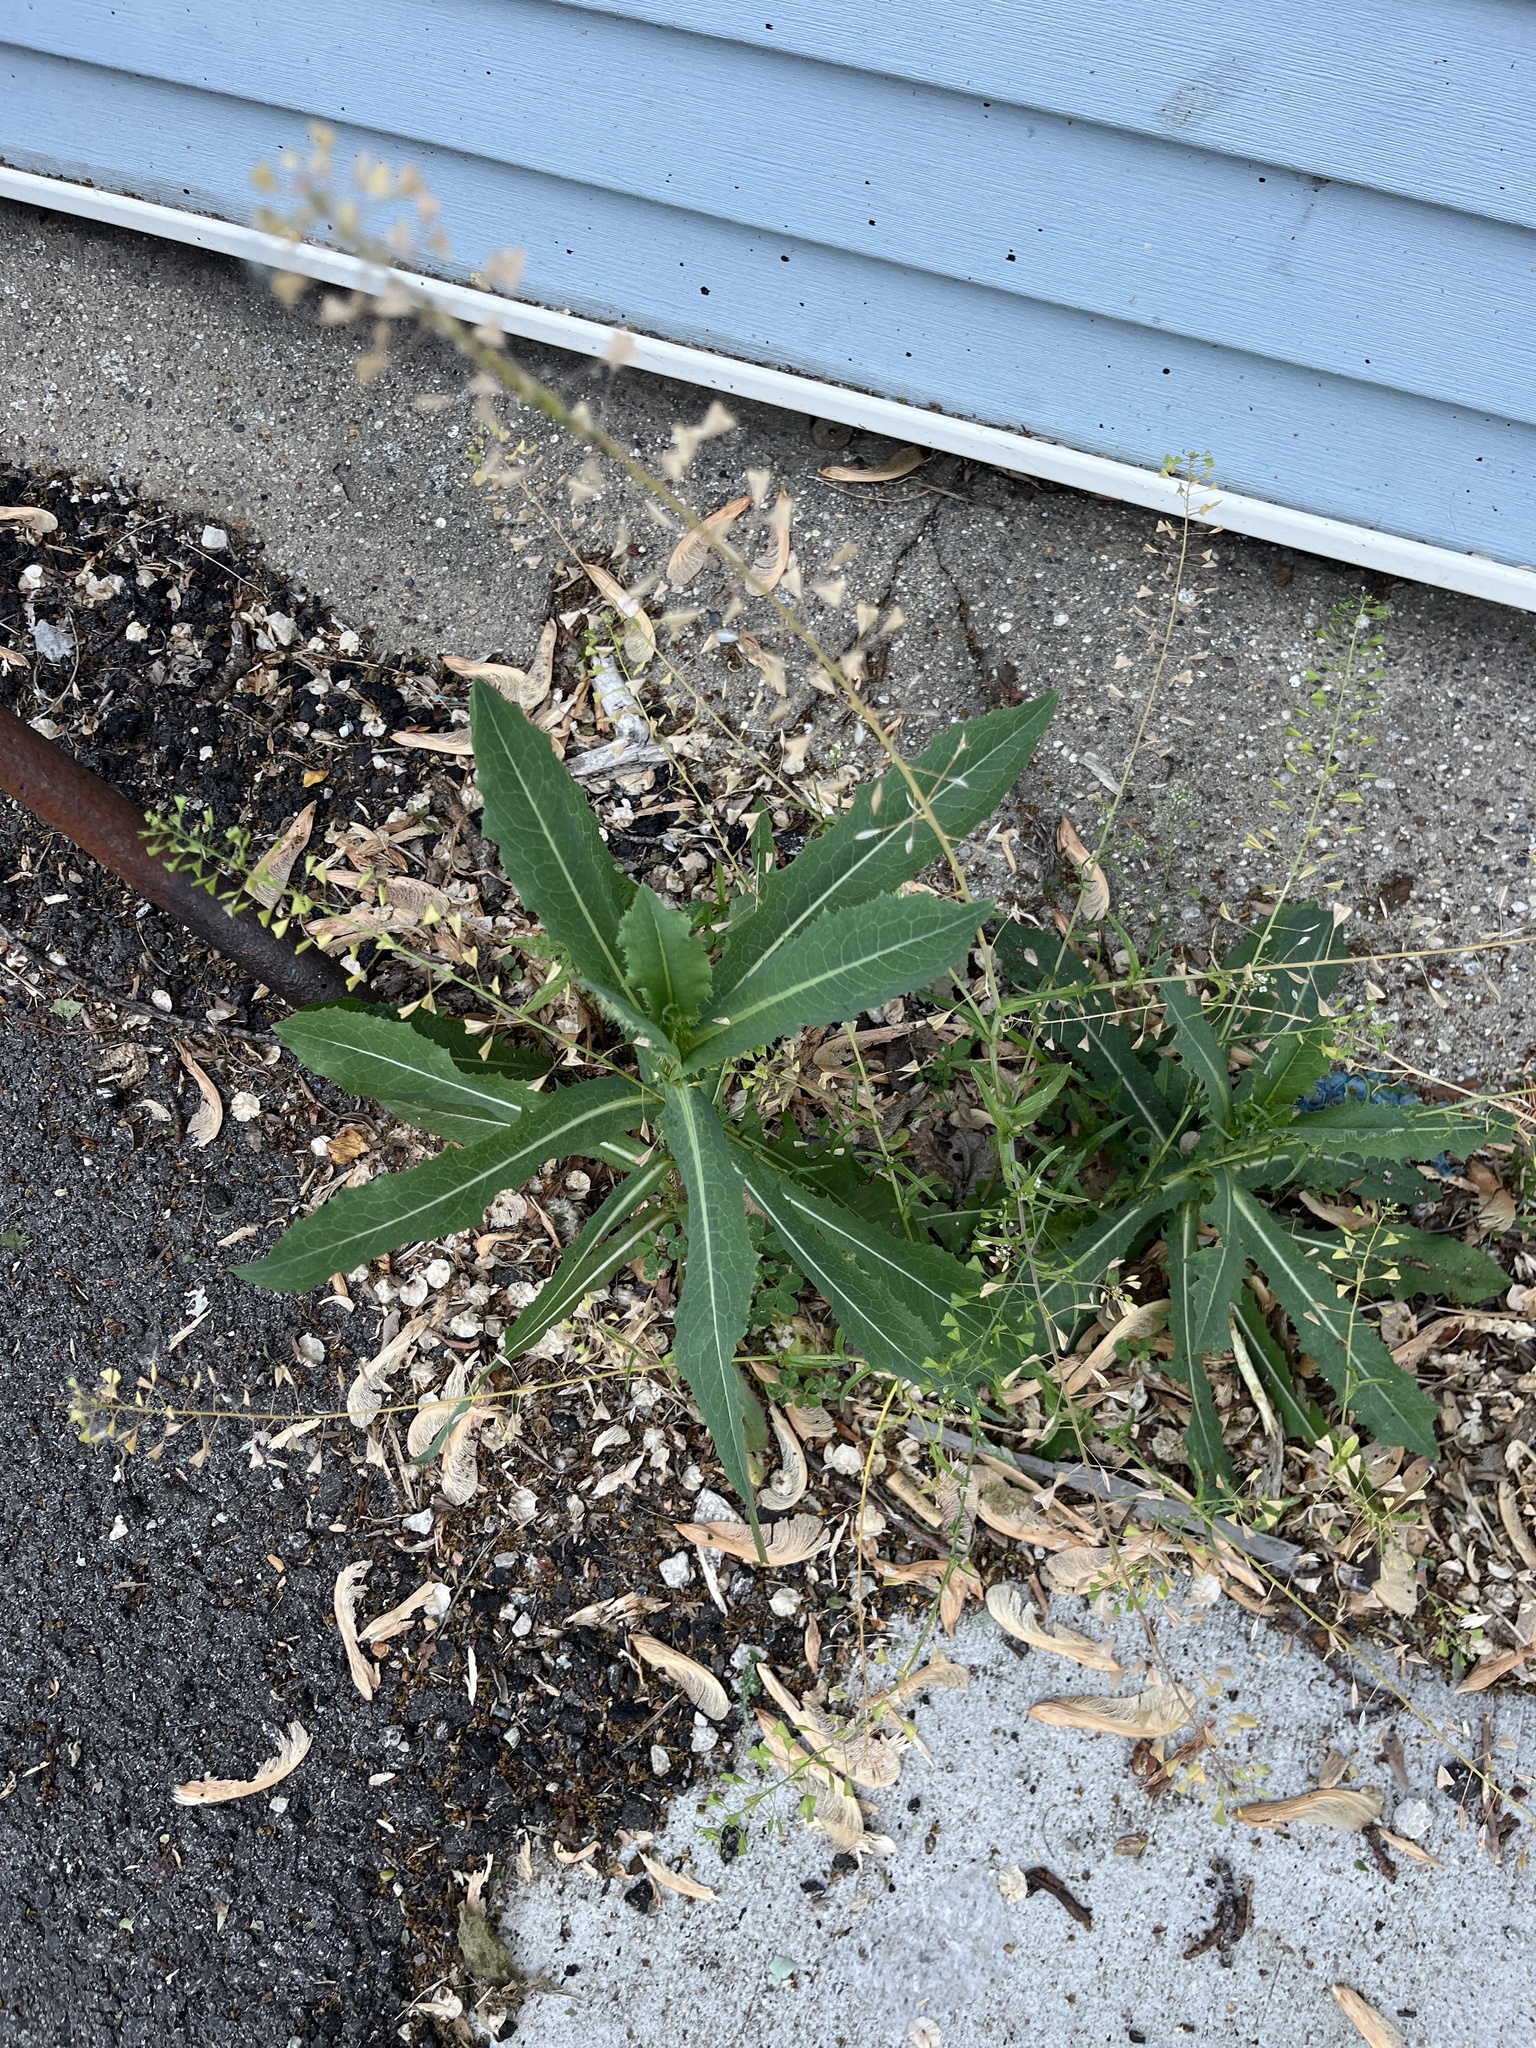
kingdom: Plantae
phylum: Tracheophyta
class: Magnoliopsida
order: Asterales
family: Asteraceae
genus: Lactuca
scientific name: Lactuca serriola
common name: Prickly lettuce
